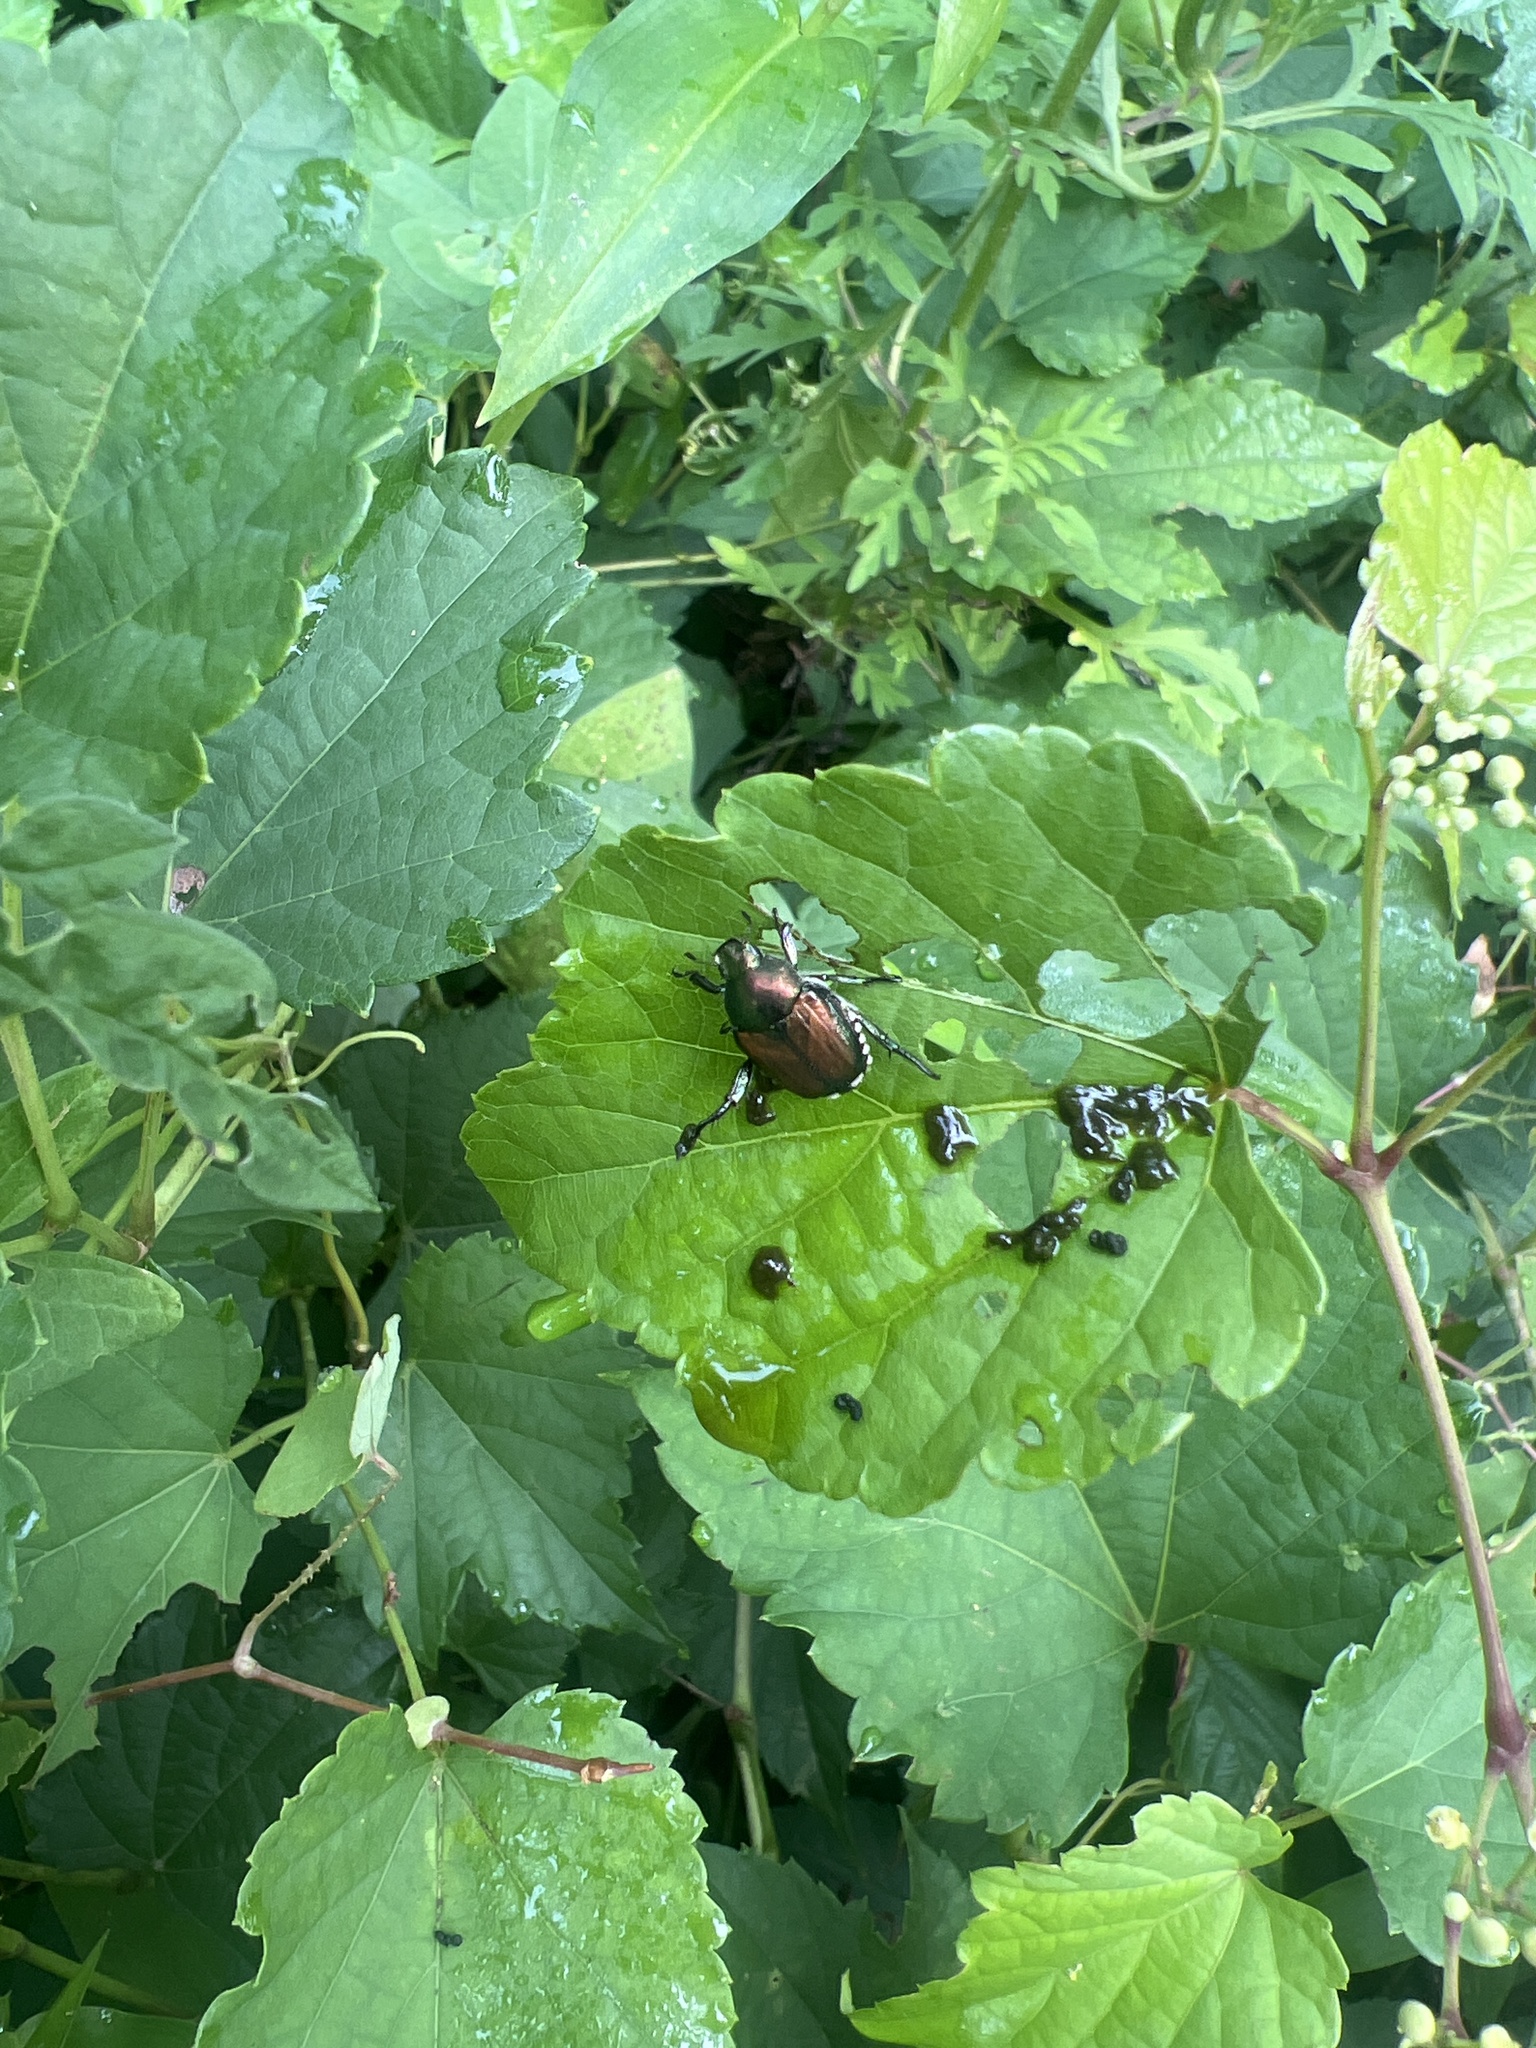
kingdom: Animalia
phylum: Arthropoda
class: Insecta
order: Coleoptera
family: Scarabaeidae
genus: Popillia
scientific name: Popillia japonica
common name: Japanese beetle
